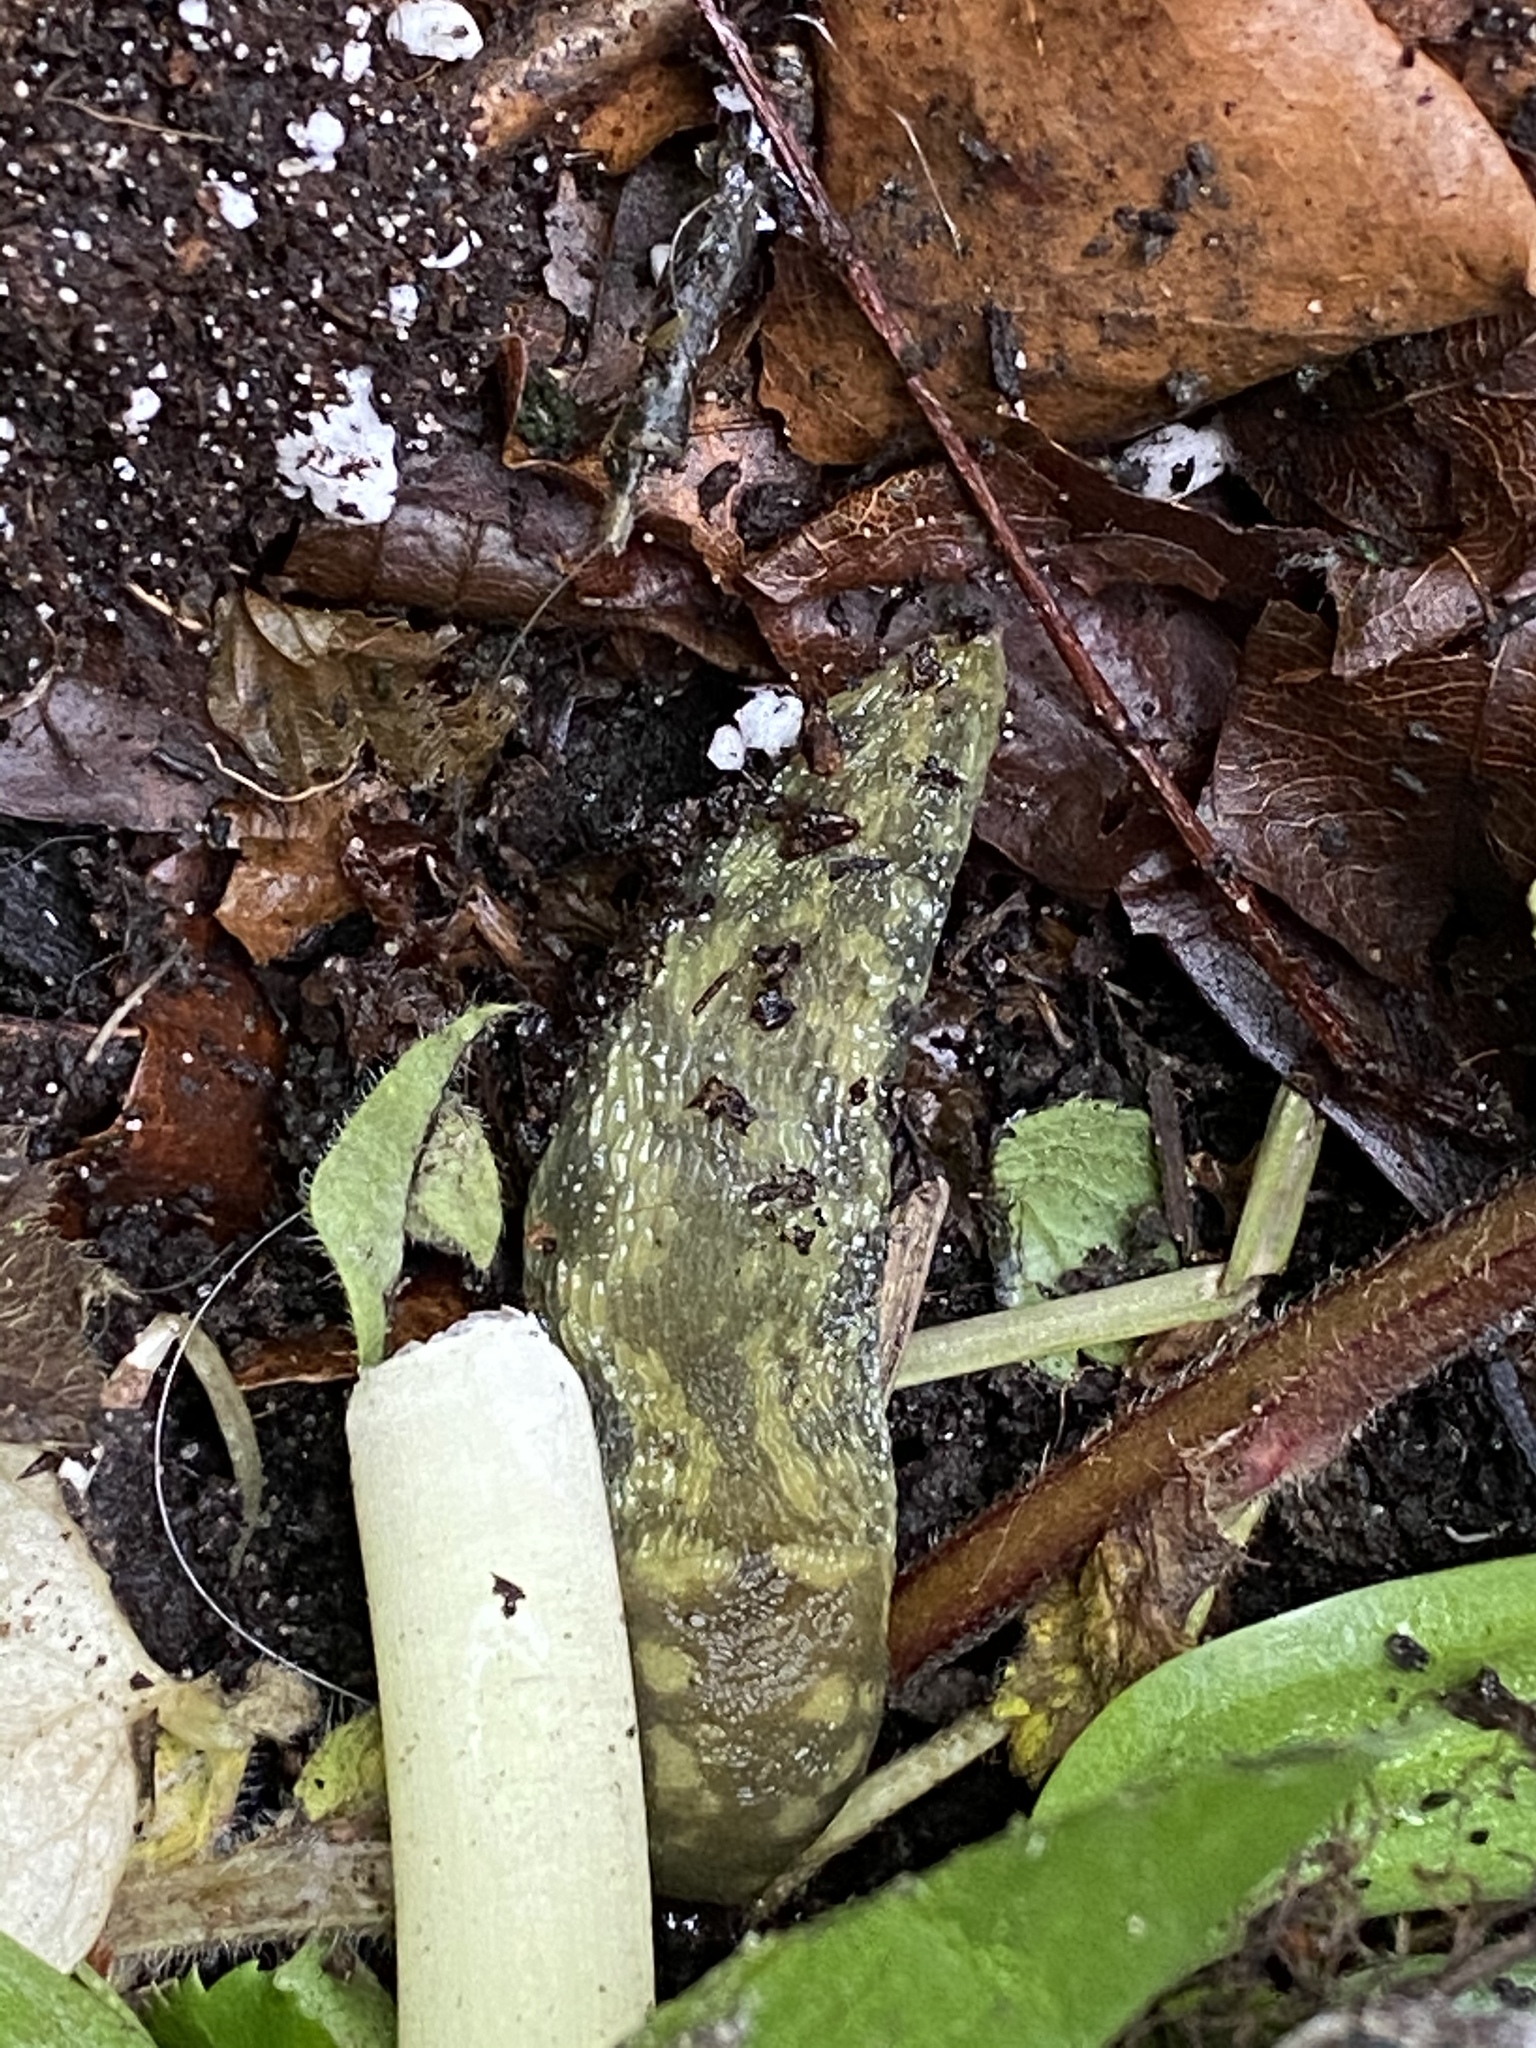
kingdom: Animalia
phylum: Mollusca
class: Gastropoda
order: Stylommatophora
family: Limacidae
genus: Limacus
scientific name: Limacus maculatus
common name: Irish yellow slug
